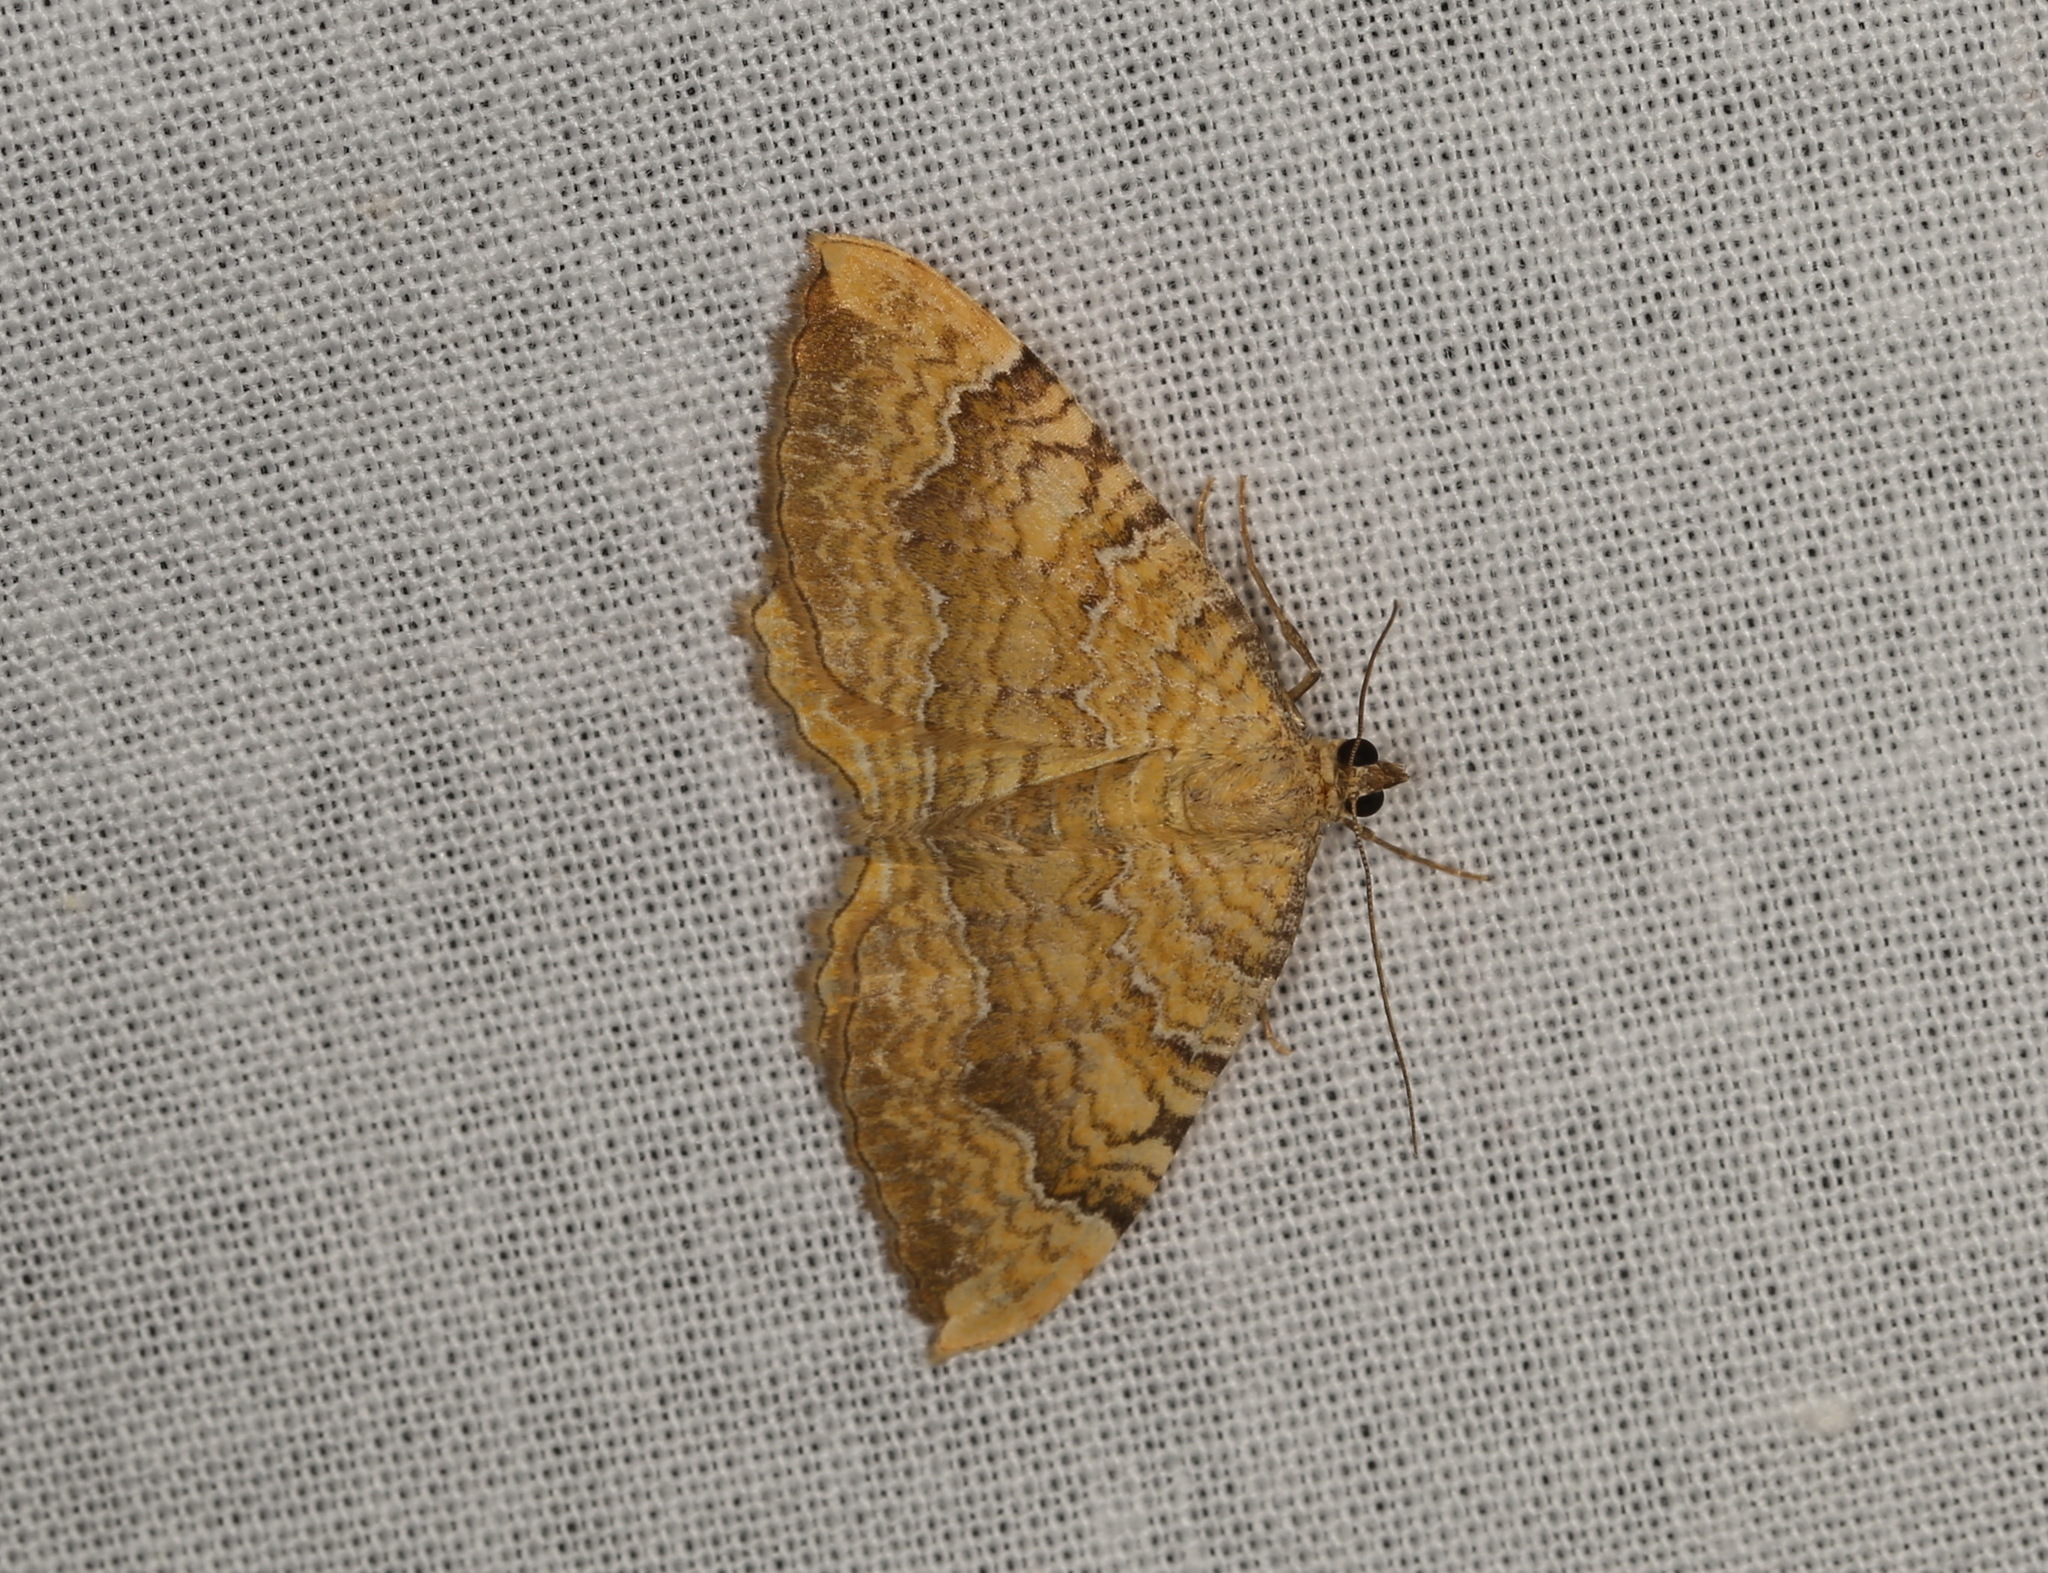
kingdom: Animalia
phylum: Arthropoda
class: Insecta
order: Lepidoptera
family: Geometridae
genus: Camptogramma
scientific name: Camptogramma bilineata
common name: Yellow shell
